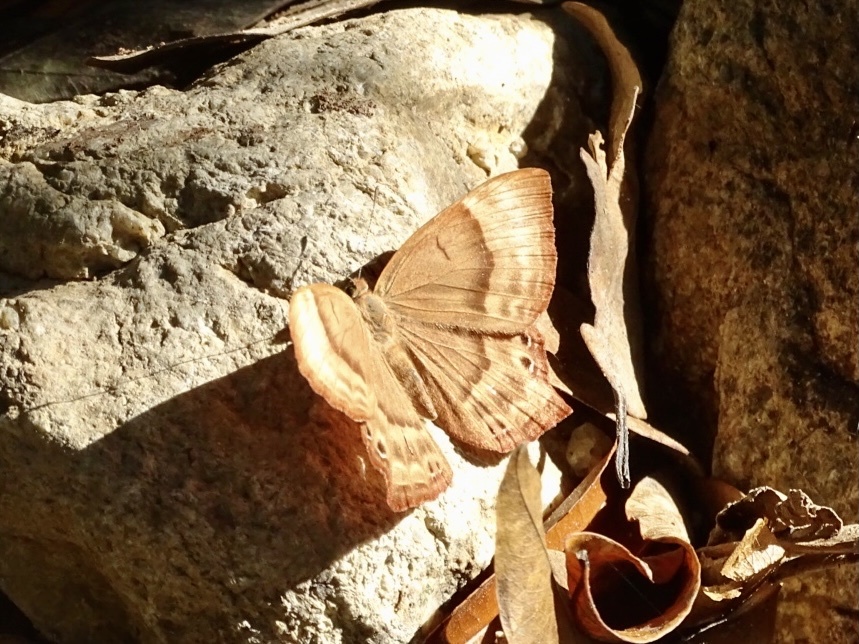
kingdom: Animalia
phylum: Arthropoda
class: Insecta
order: Lepidoptera
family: Lycaenidae
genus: Abisara
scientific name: Abisara echeria
